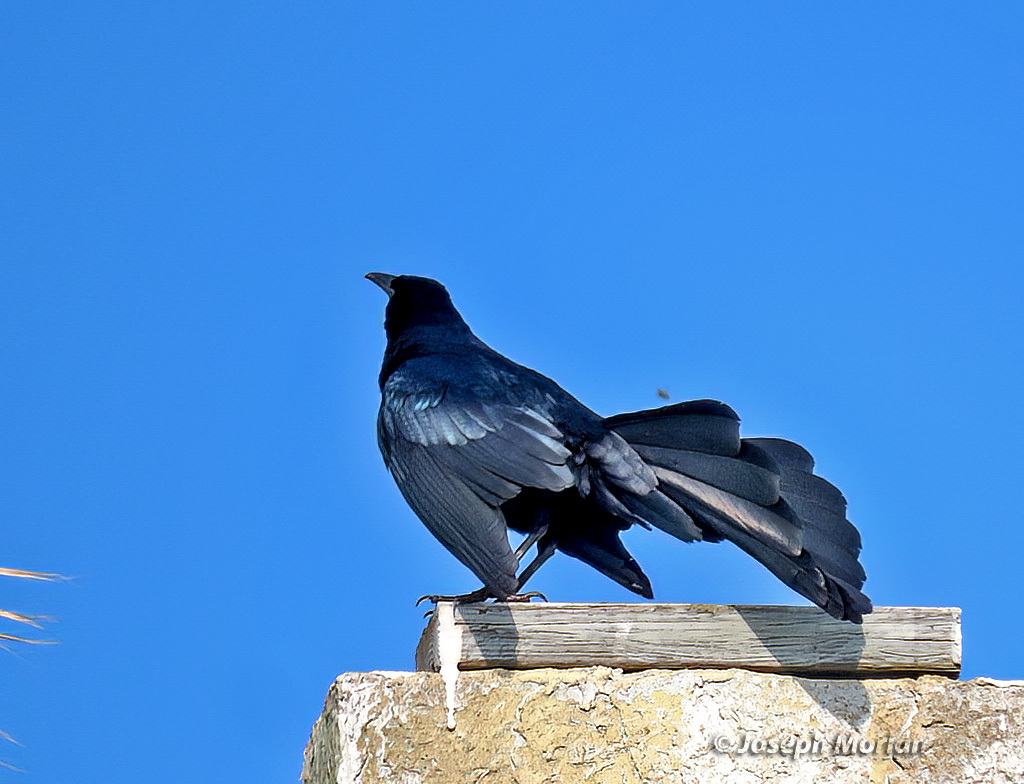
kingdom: Animalia
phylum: Chordata
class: Aves
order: Passeriformes
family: Icteridae
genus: Quiscalus
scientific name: Quiscalus mexicanus
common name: Great-tailed grackle
